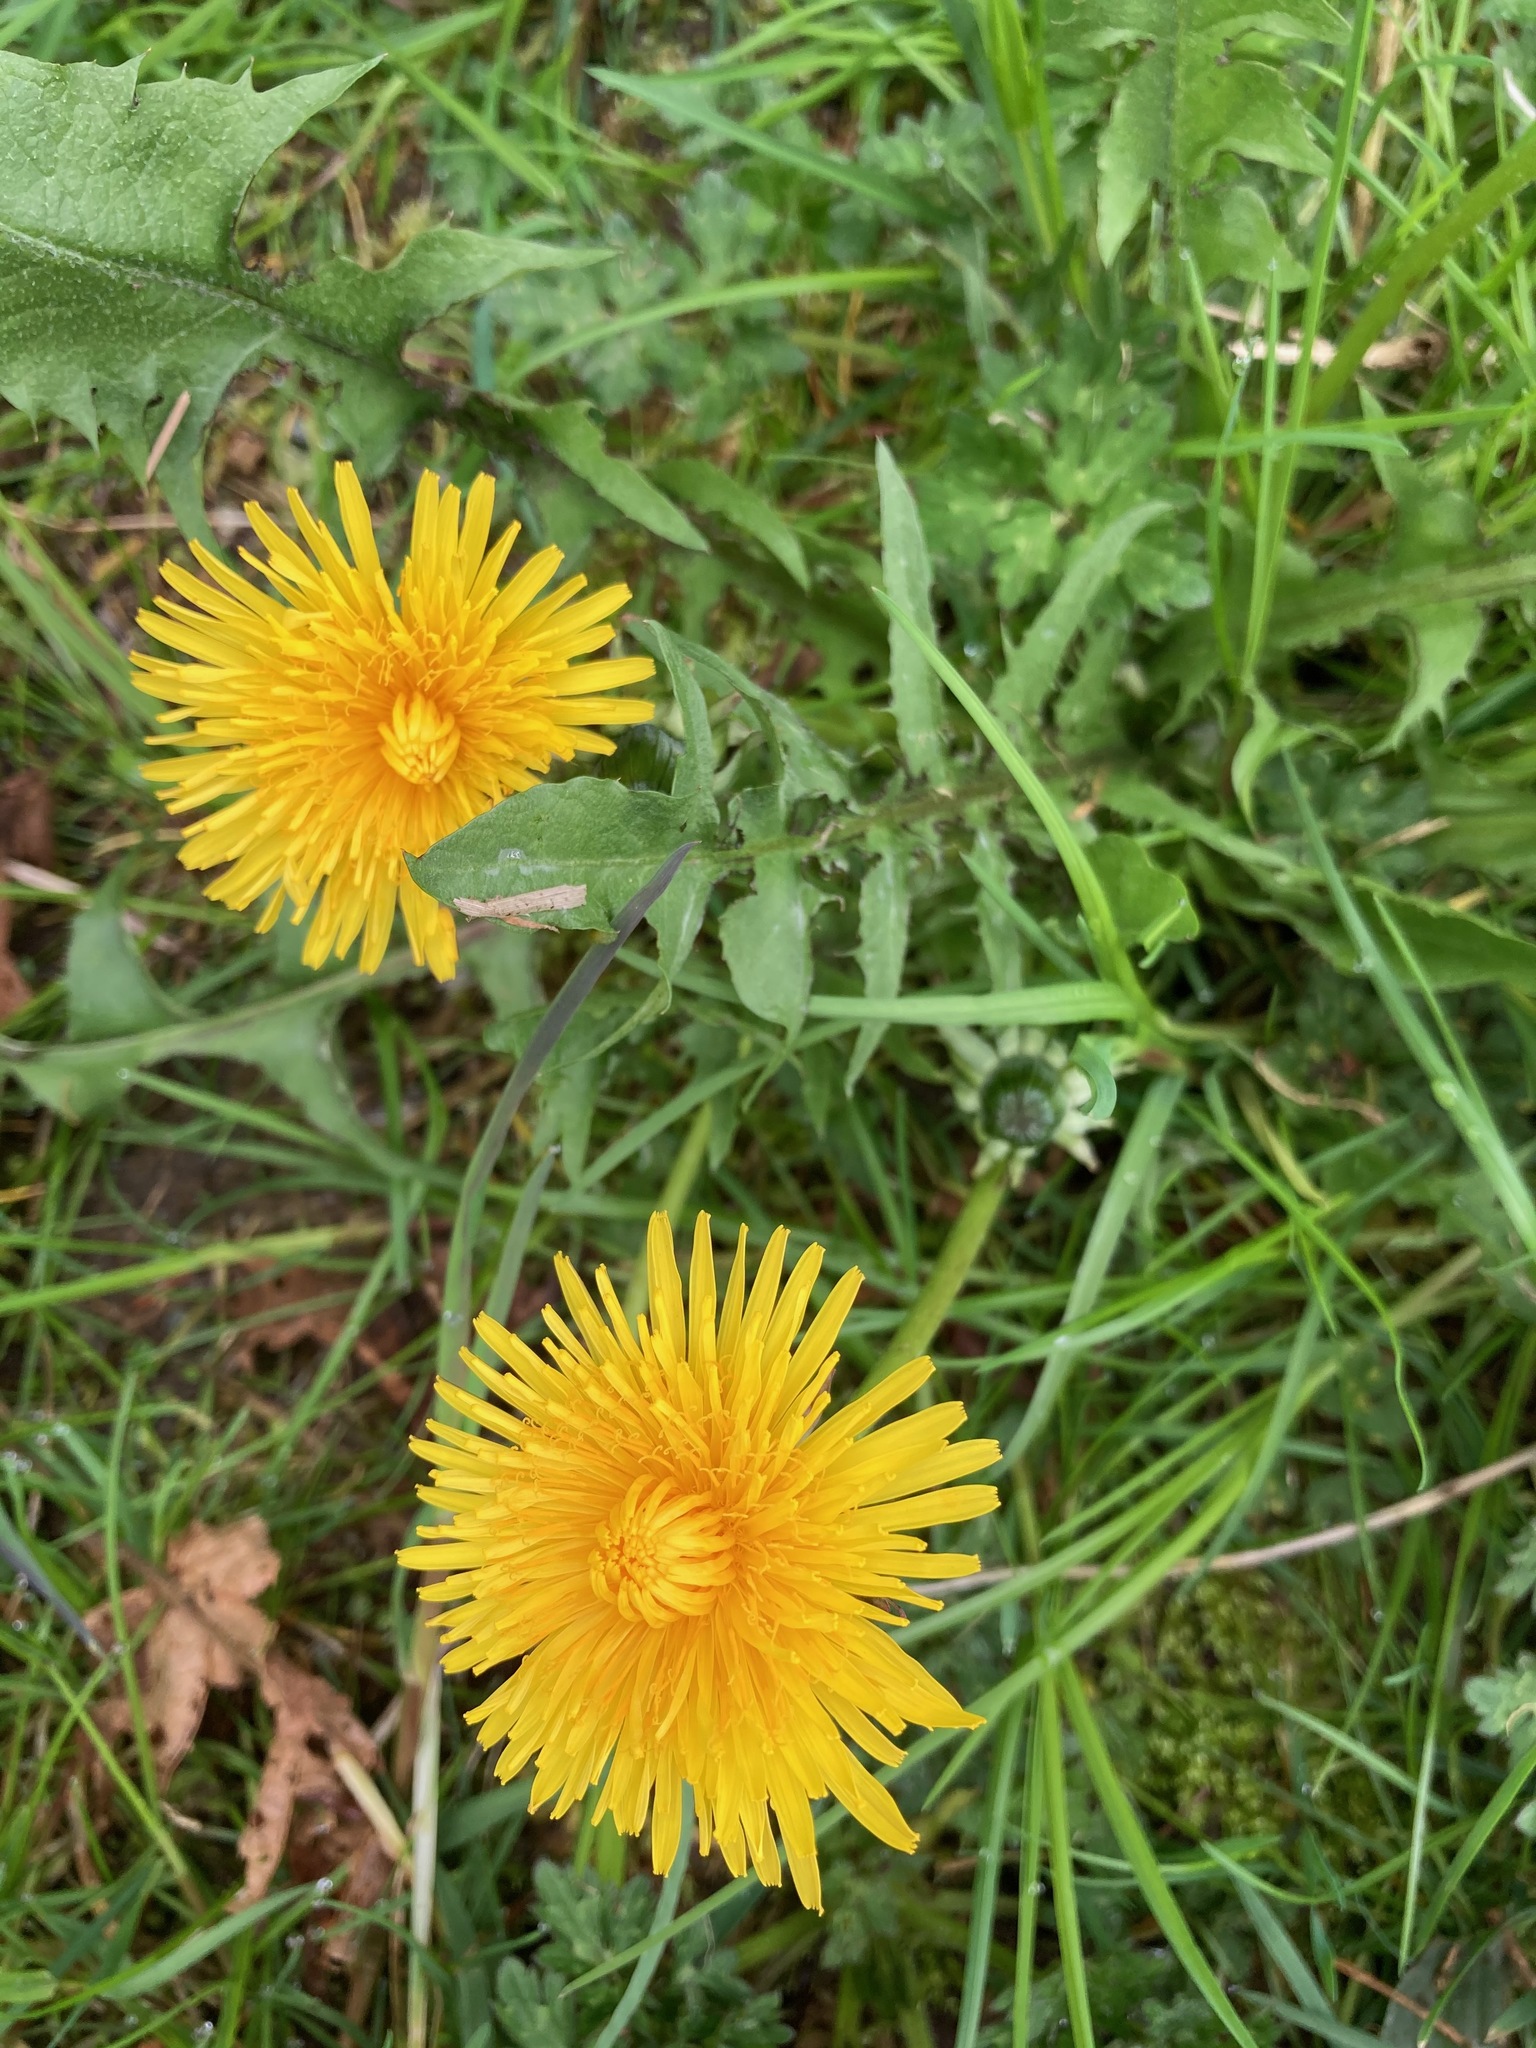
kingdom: Plantae
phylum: Tracheophyta
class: Magnoliopsida
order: Asterales
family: Asteraceae
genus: Taraxacum
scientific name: Taraxacum officinale
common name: Common dandelion
